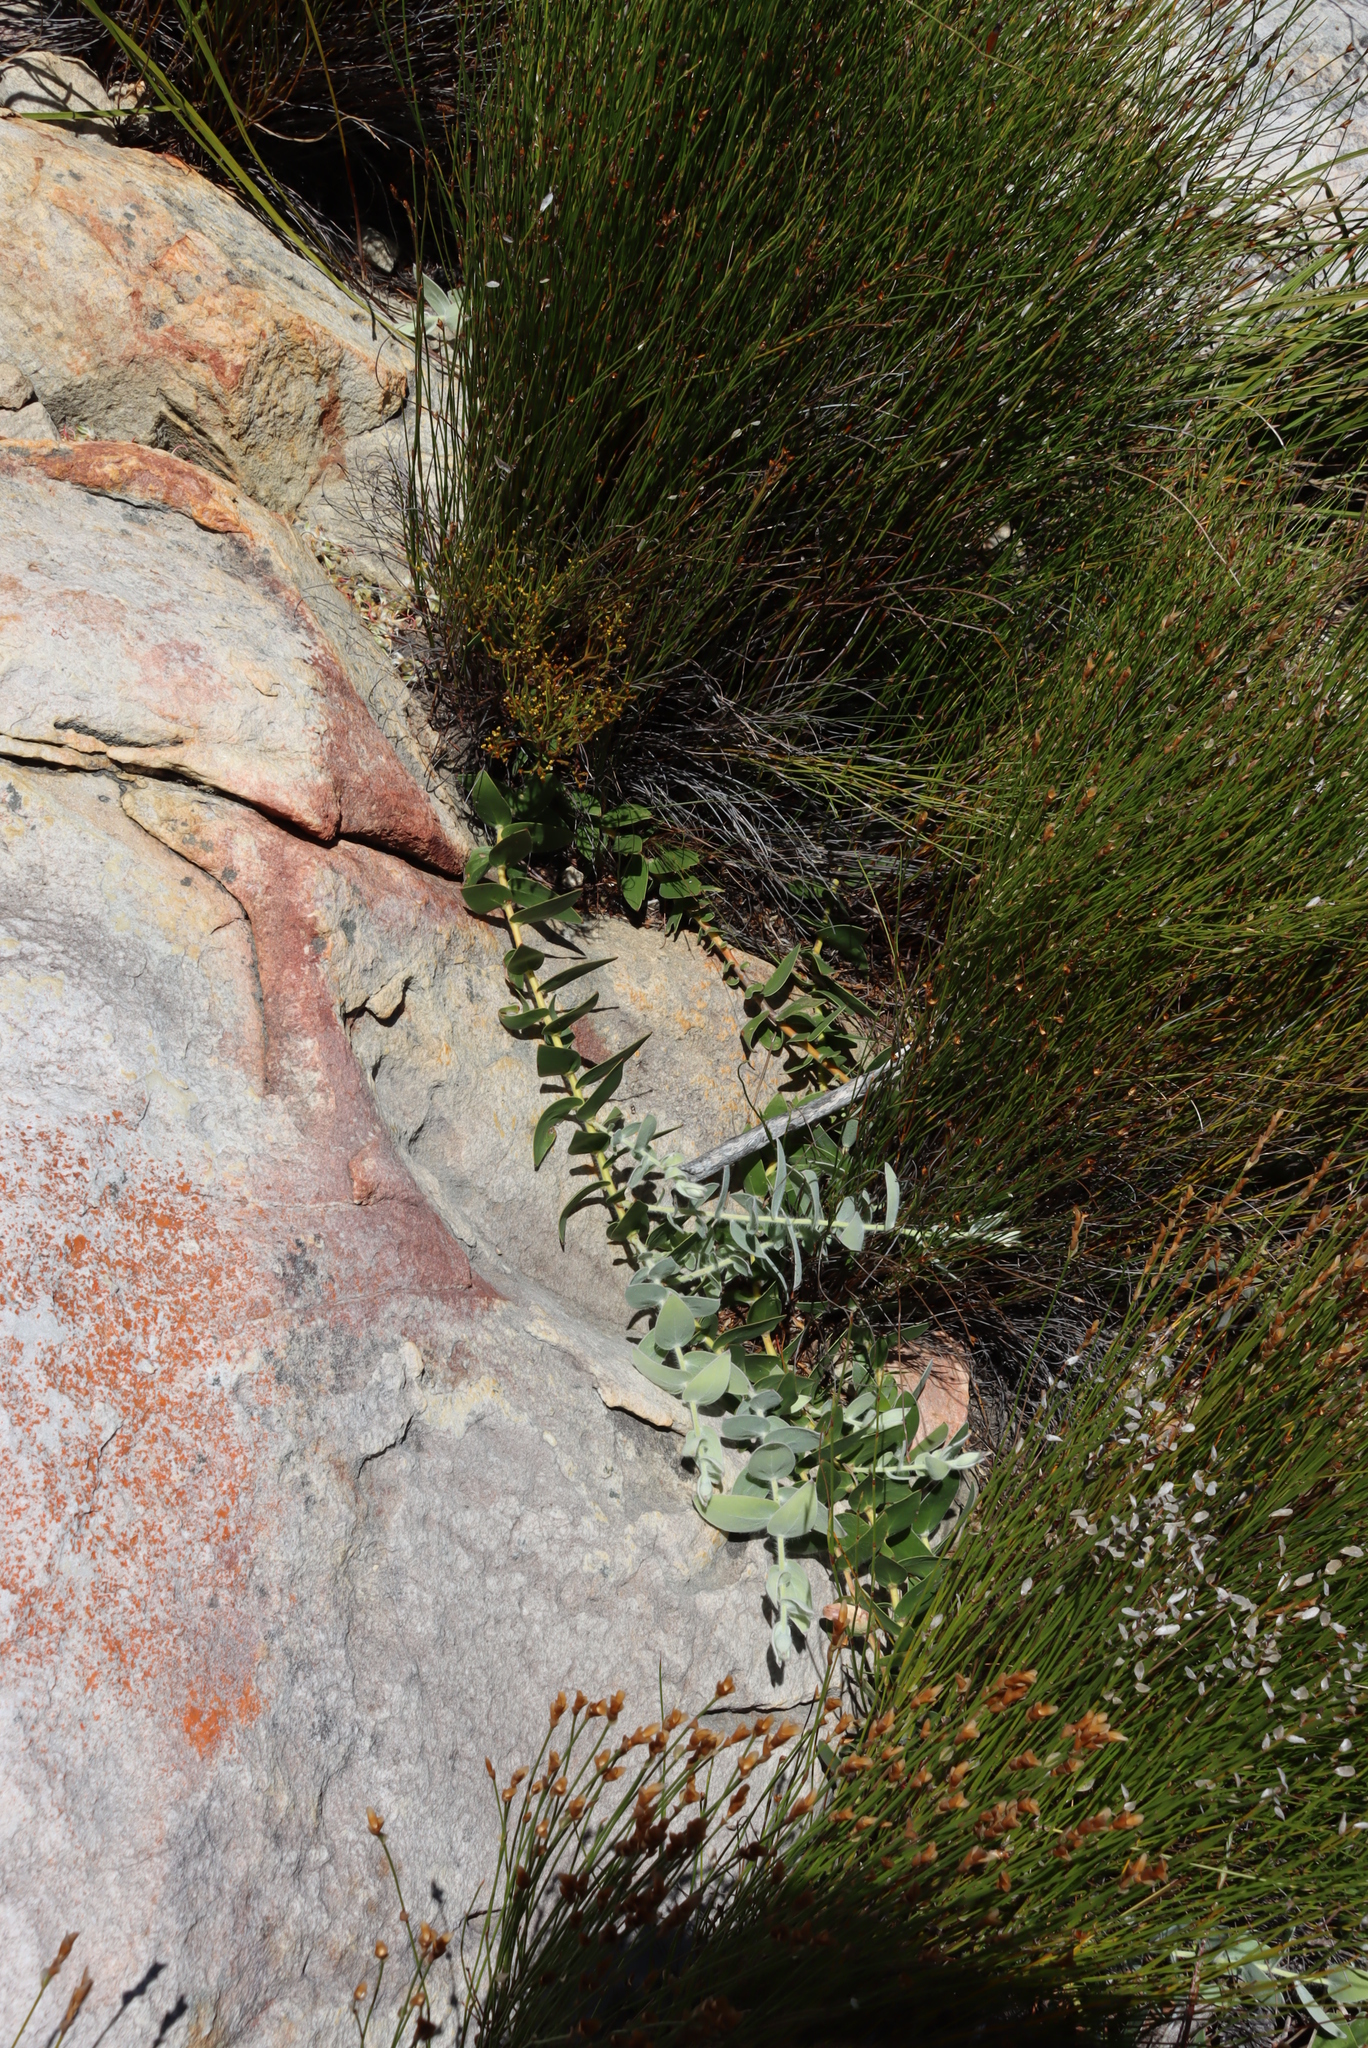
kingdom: Plantae
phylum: Tracheophyta
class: Magnoliopsida
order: Proteales
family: Proteaceae
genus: Leucospermum
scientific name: Leucospermum cordatum
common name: Heart-leaf pincushion
